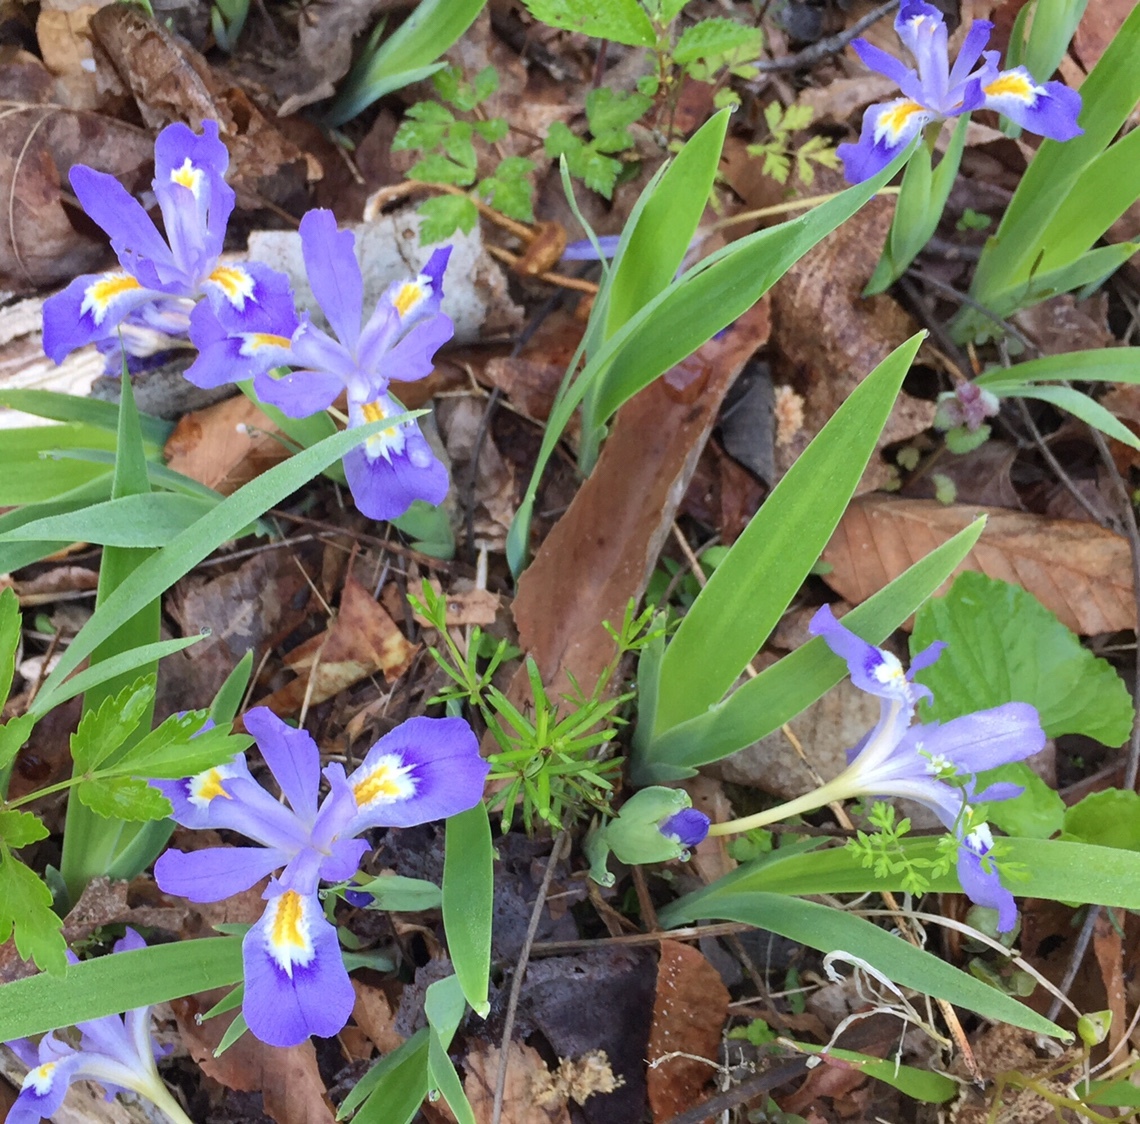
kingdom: Plantae
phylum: Tracheophyta
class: Liliopsida
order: Asparagales
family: Iridaceae
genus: Iris
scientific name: Iris cristata
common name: Crested iris
